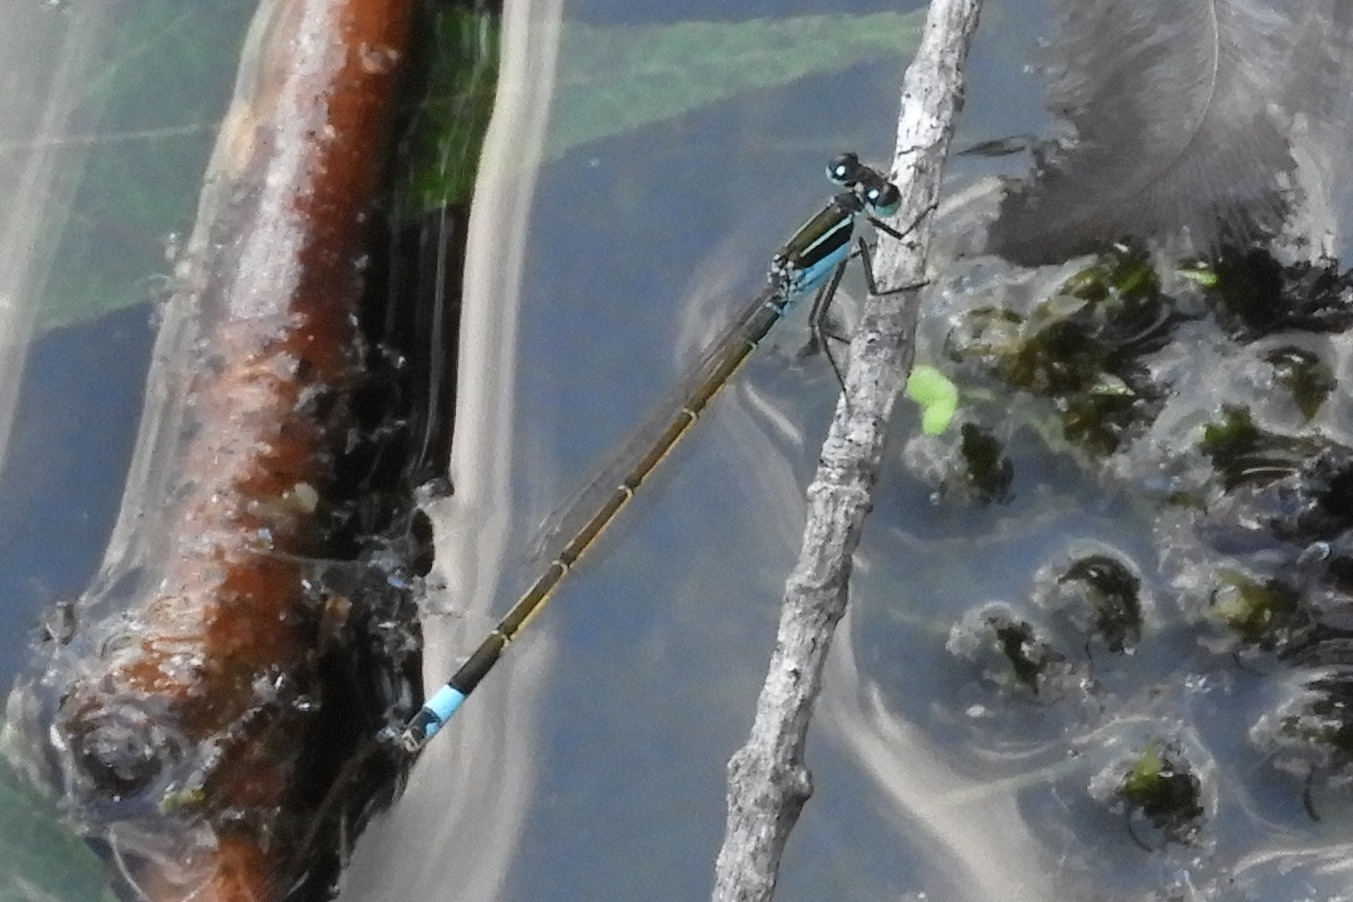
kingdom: Animalia
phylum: Arthropoda
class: Insecta
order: Odonata
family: Coenagrionidae
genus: Ischnura
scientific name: Ischnura ramburii
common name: Rambur's forktail
